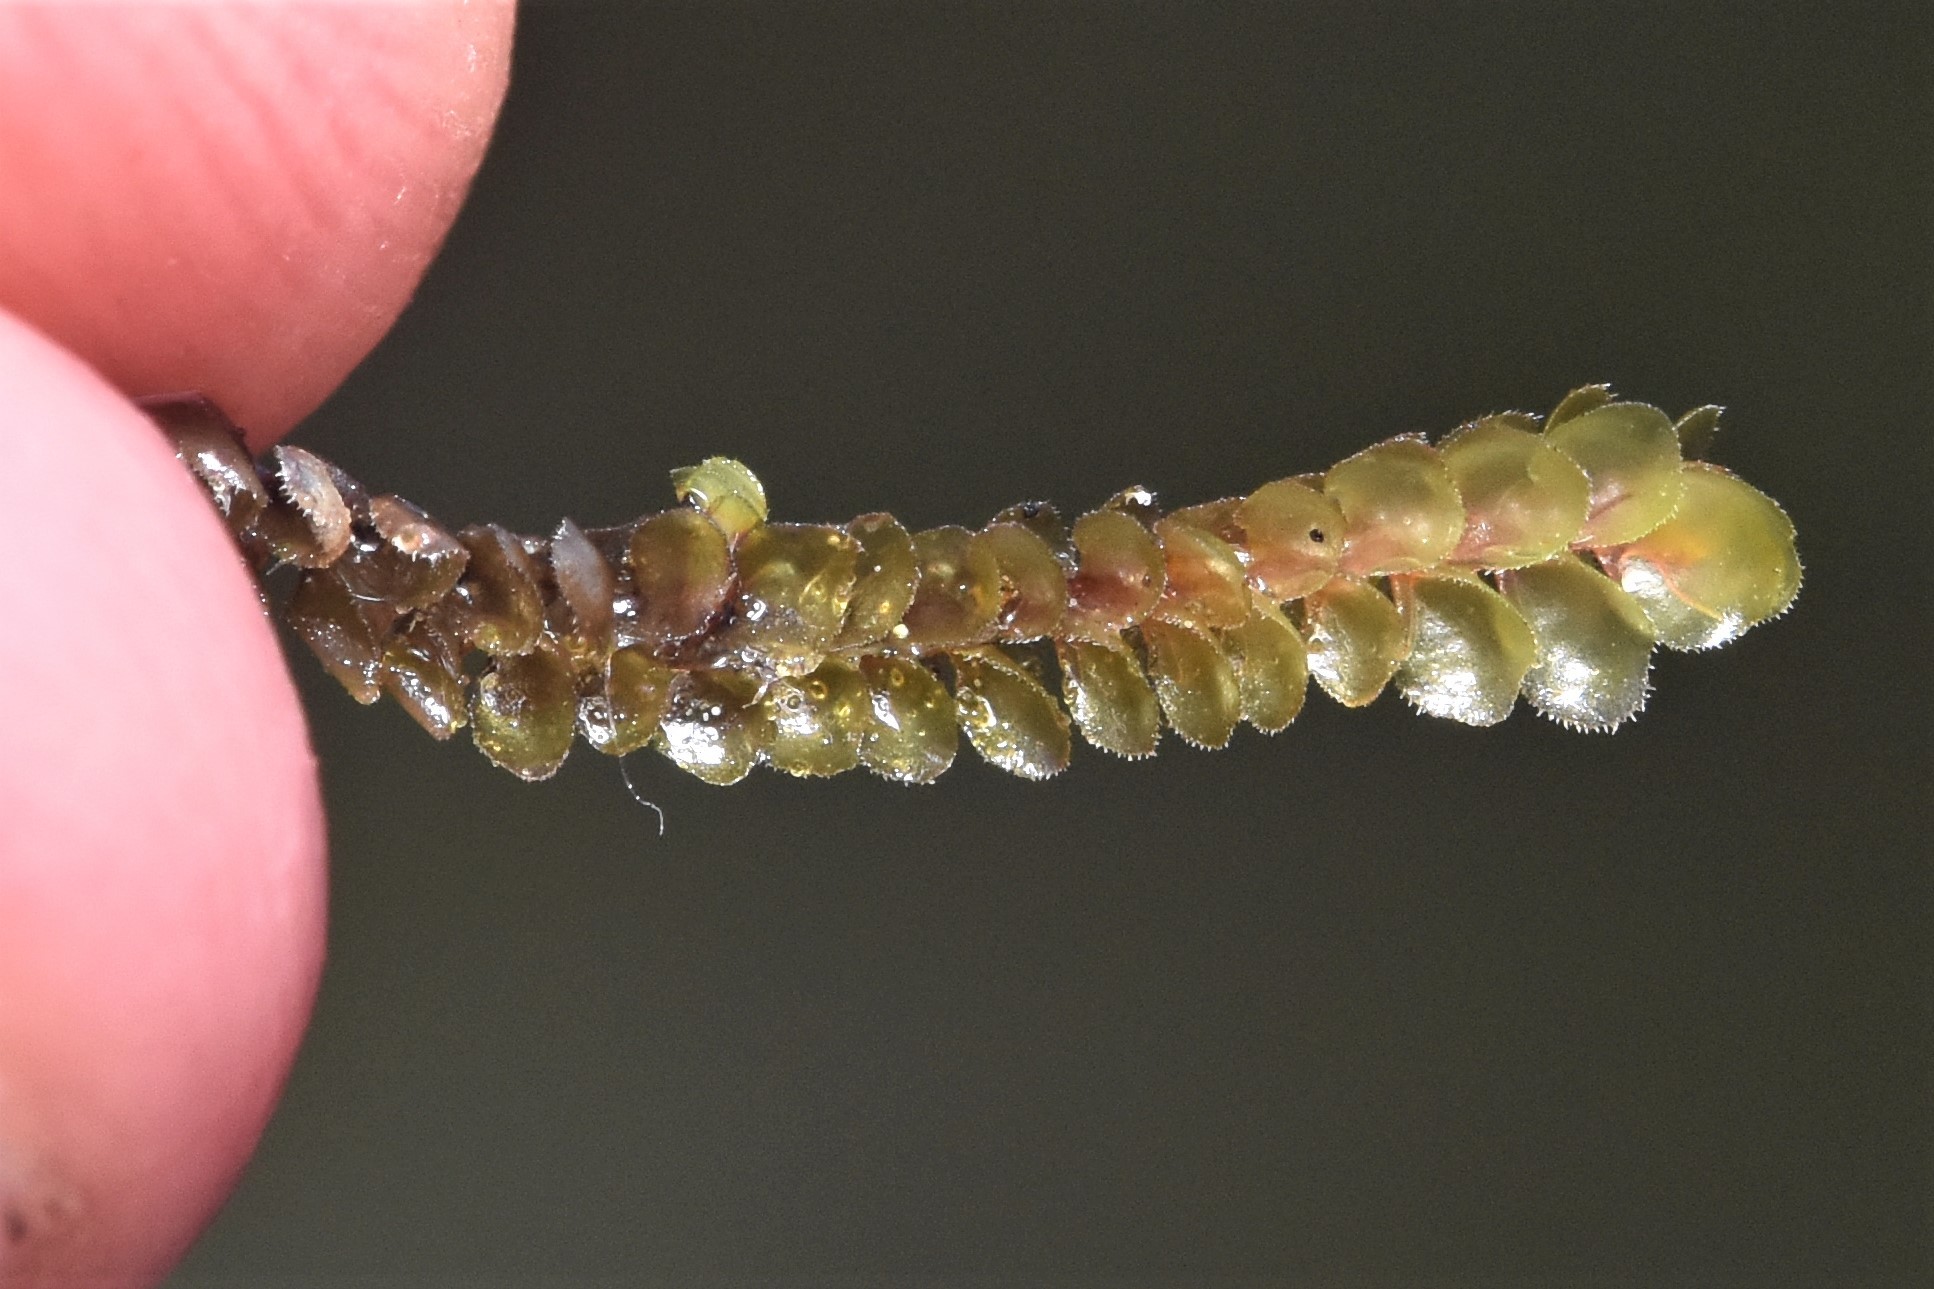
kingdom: Plantae
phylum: Marchantiophyta
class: Jungermanniopsida
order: Jungermanniales
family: Scapaniaceae
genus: Scapania
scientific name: Scapania americana
